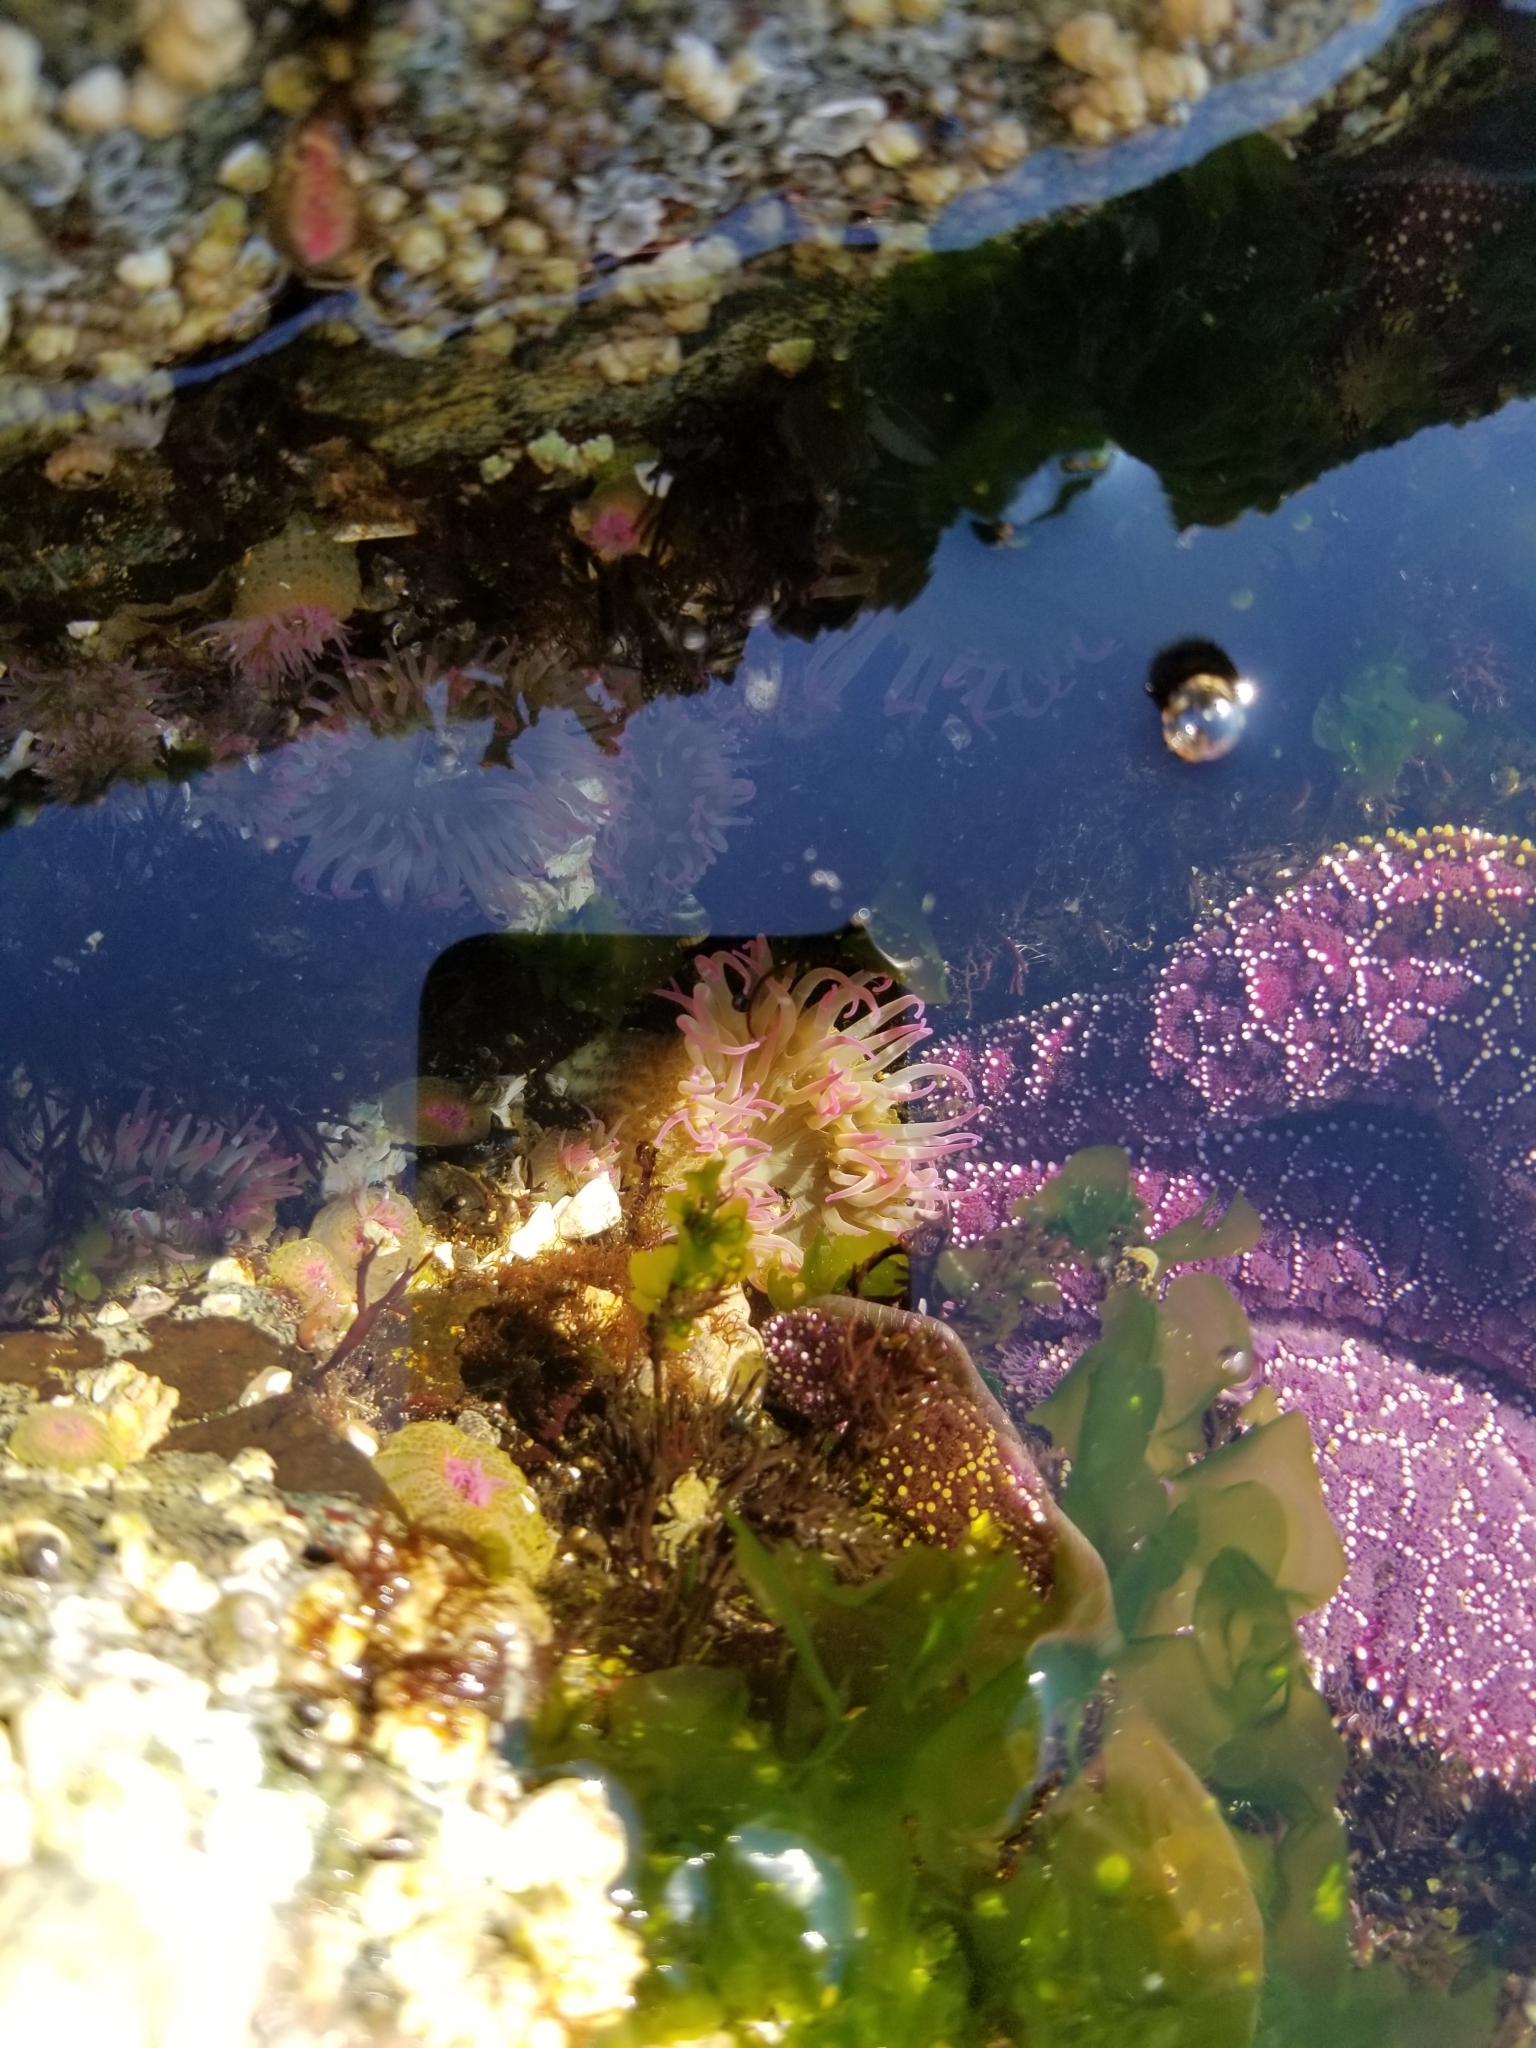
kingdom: Animalia
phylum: Cnidaria
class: Anthozoa
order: Actiniaria
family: Actiniidae
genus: Anthopleura
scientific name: Anthopleura elegantissima
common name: Clonal anemone
